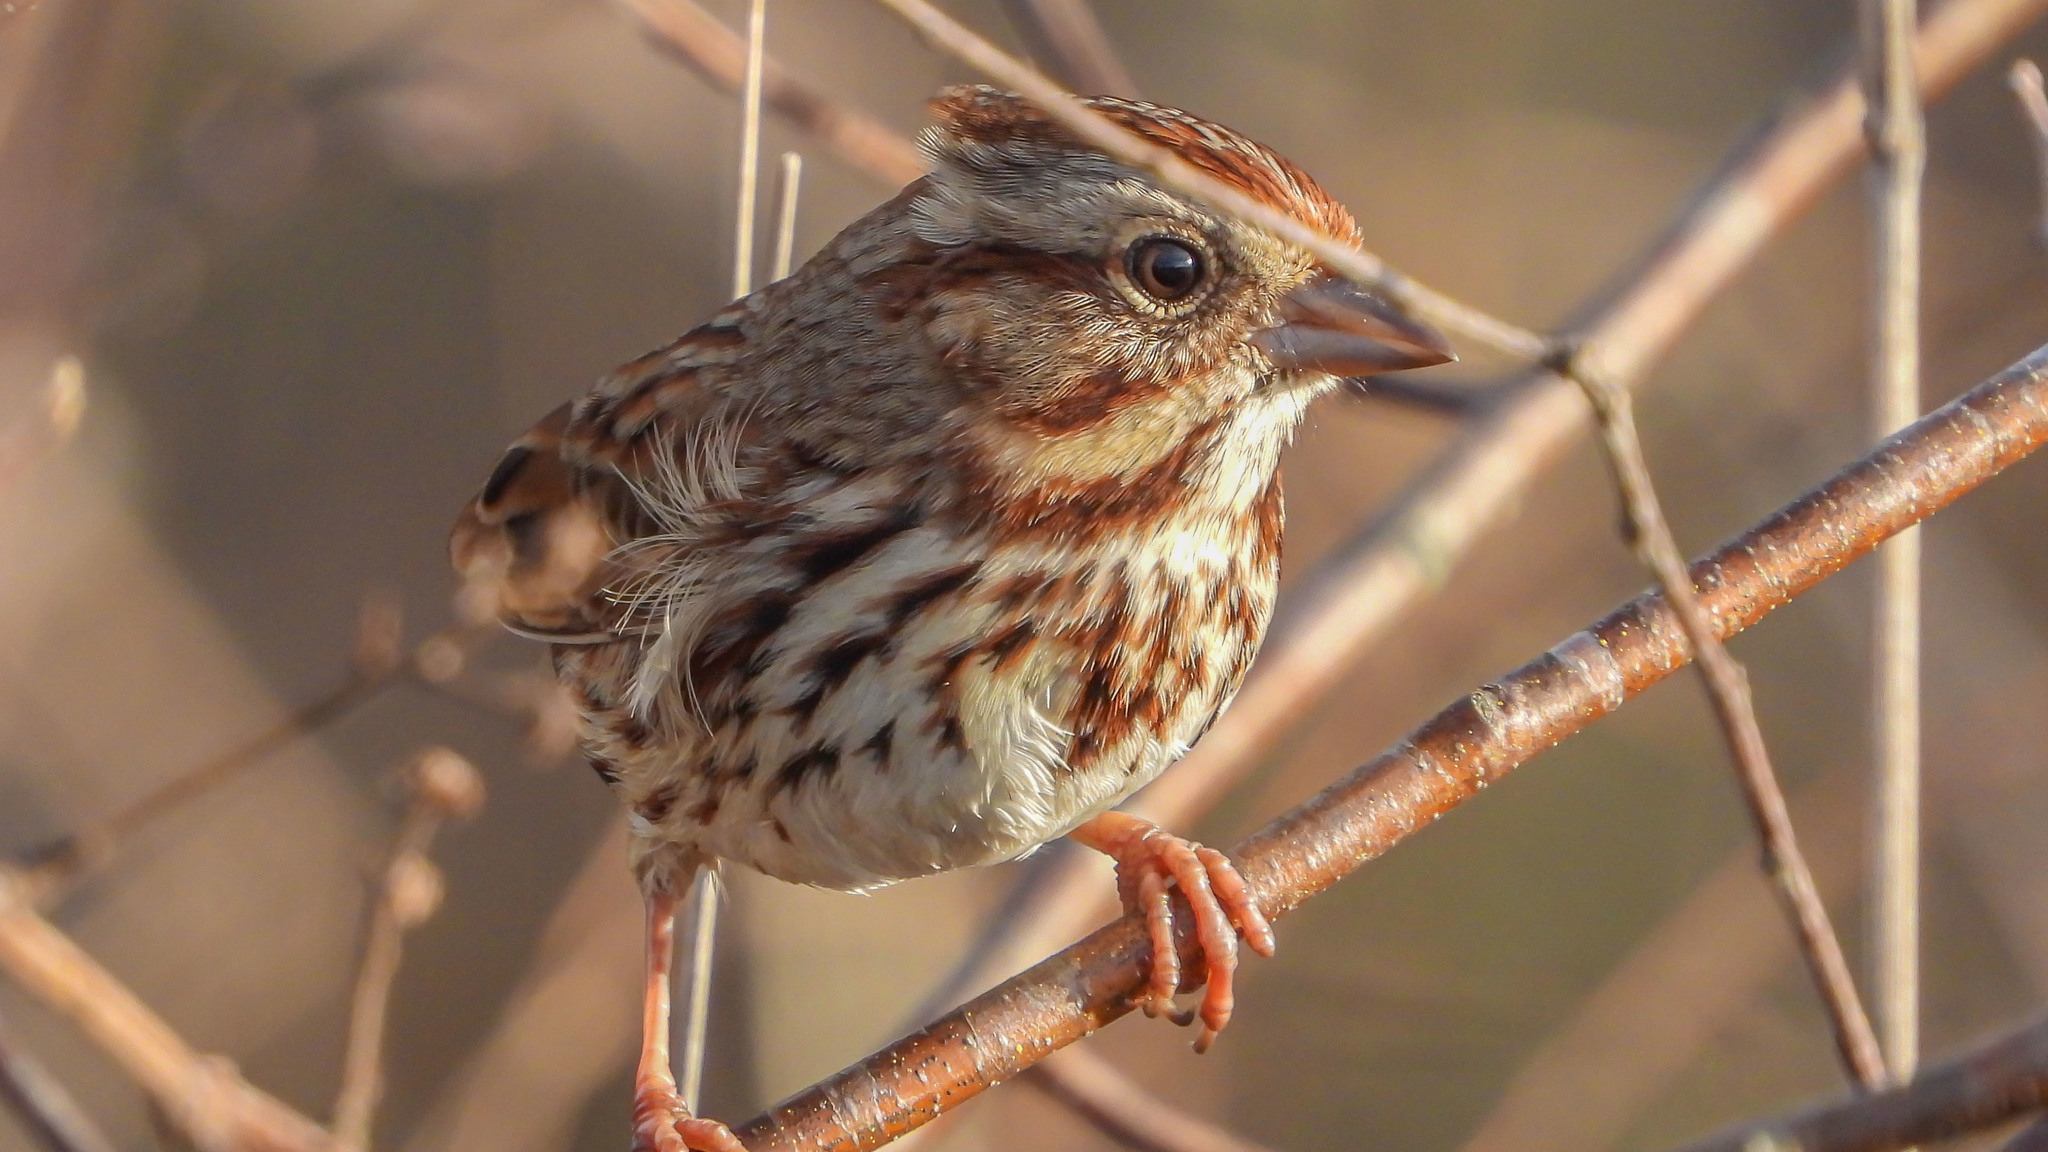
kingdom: Animalia
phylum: Chordata
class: Aves
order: Passeriformes
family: Passerellidae
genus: Melospiza
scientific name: Melospiza melodia
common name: Song sparrow
